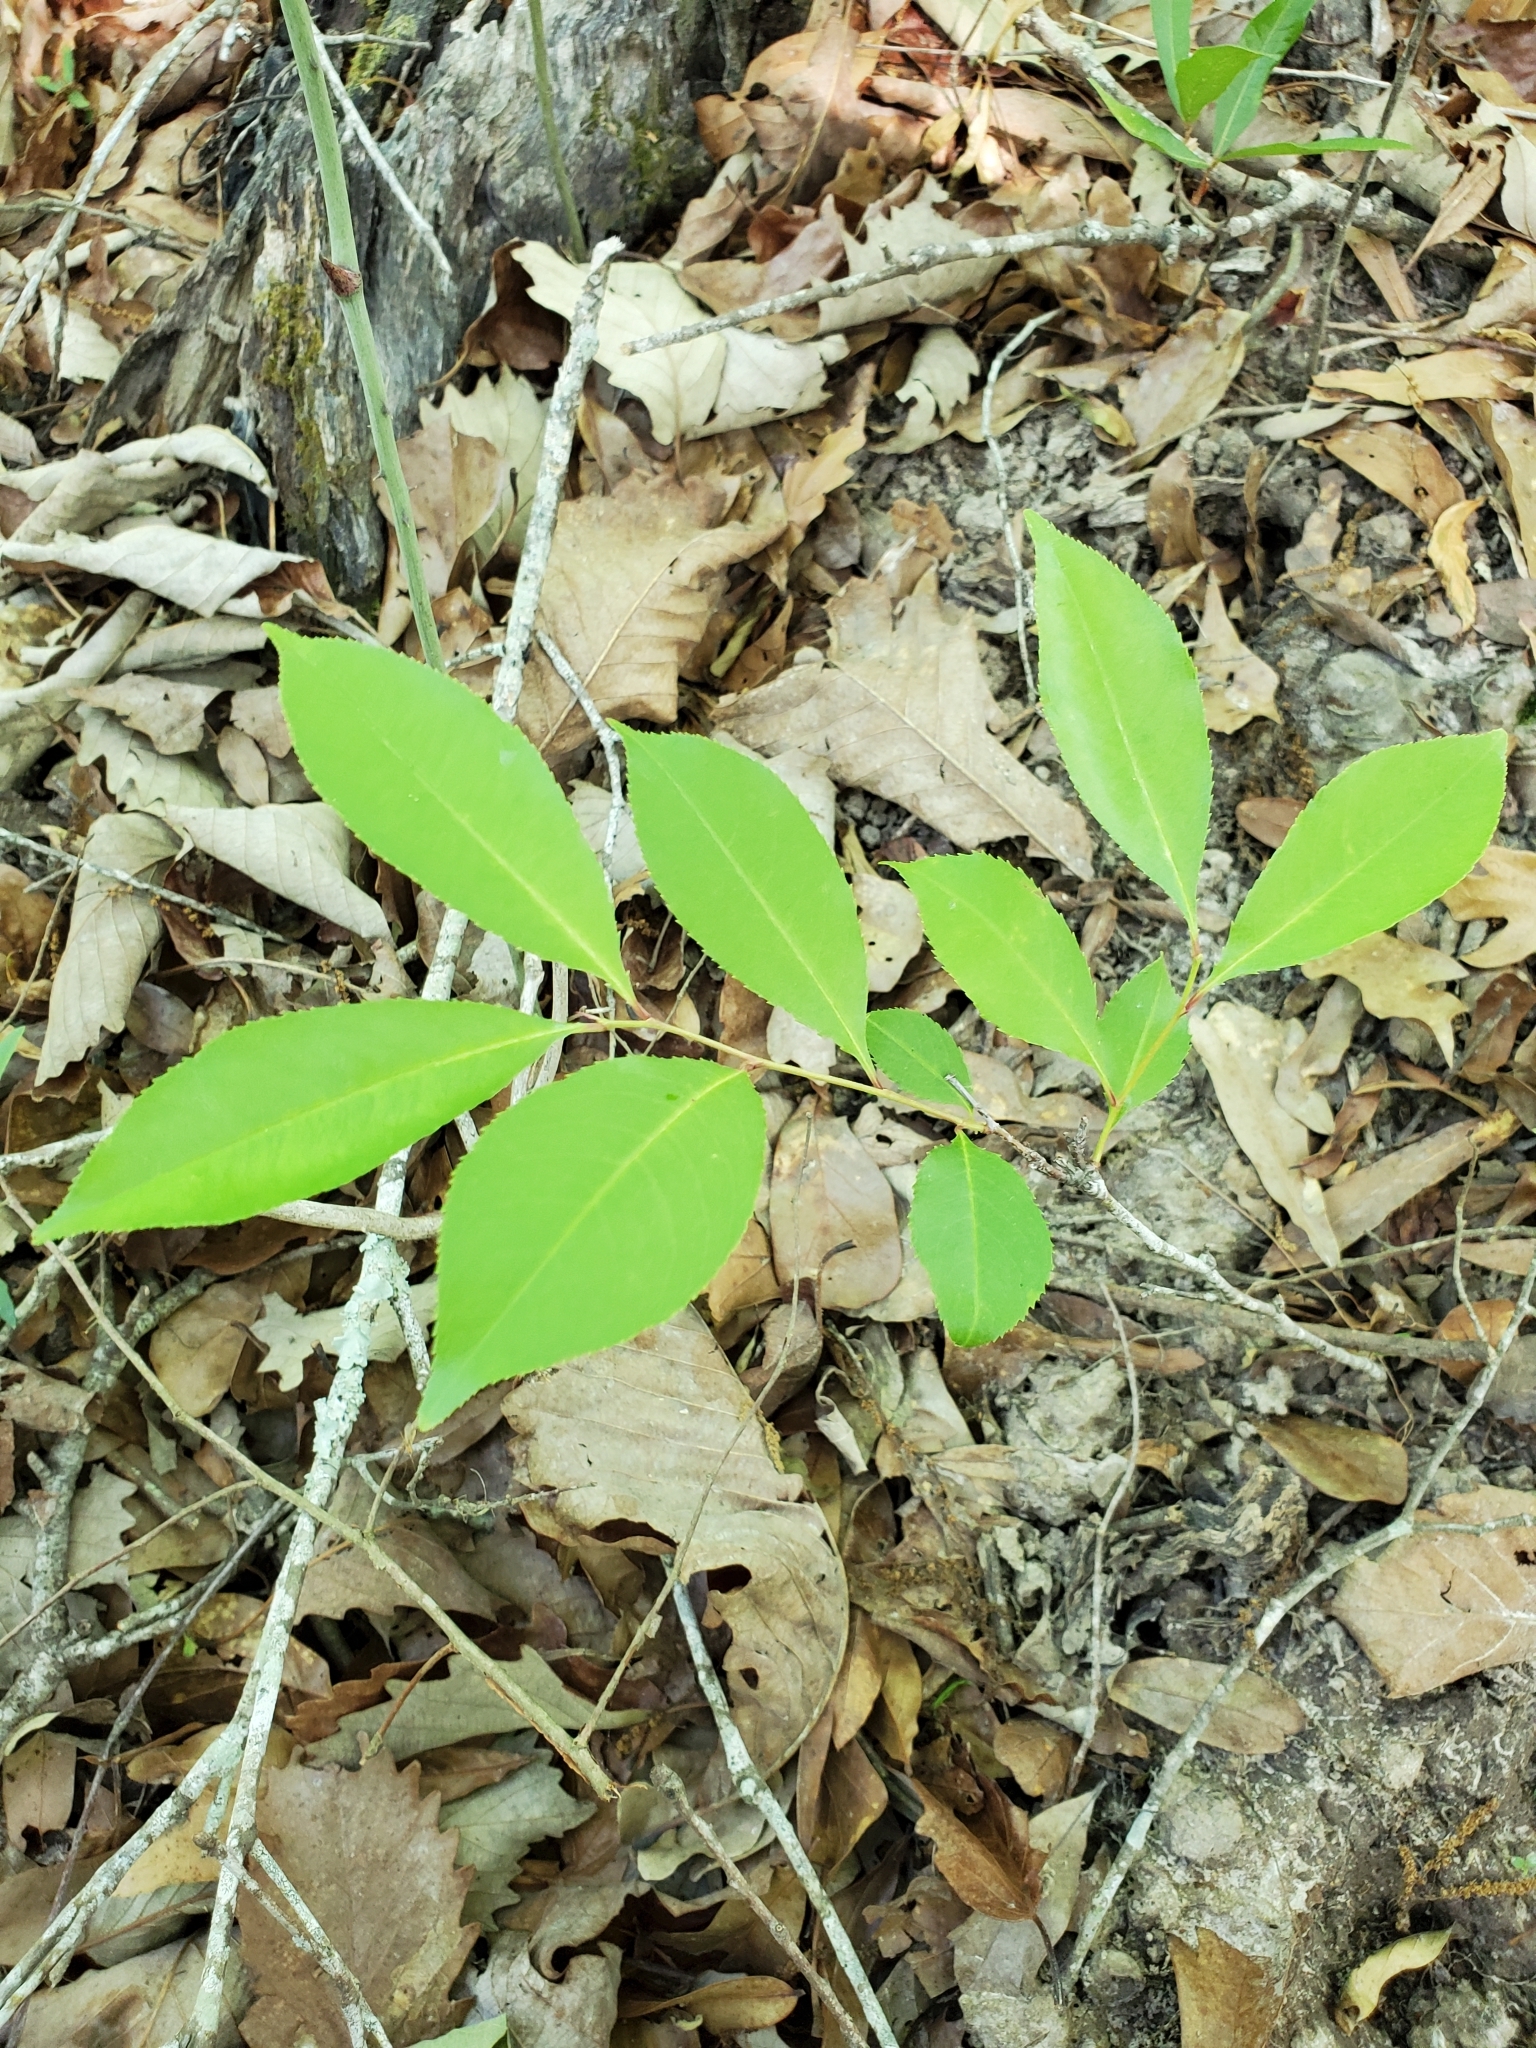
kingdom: Plantae
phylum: Tracheophyta
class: Magnoliopsida
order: Rosales
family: Rosaceae
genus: Prunus
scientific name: Prunus serotina
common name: Black cherry
